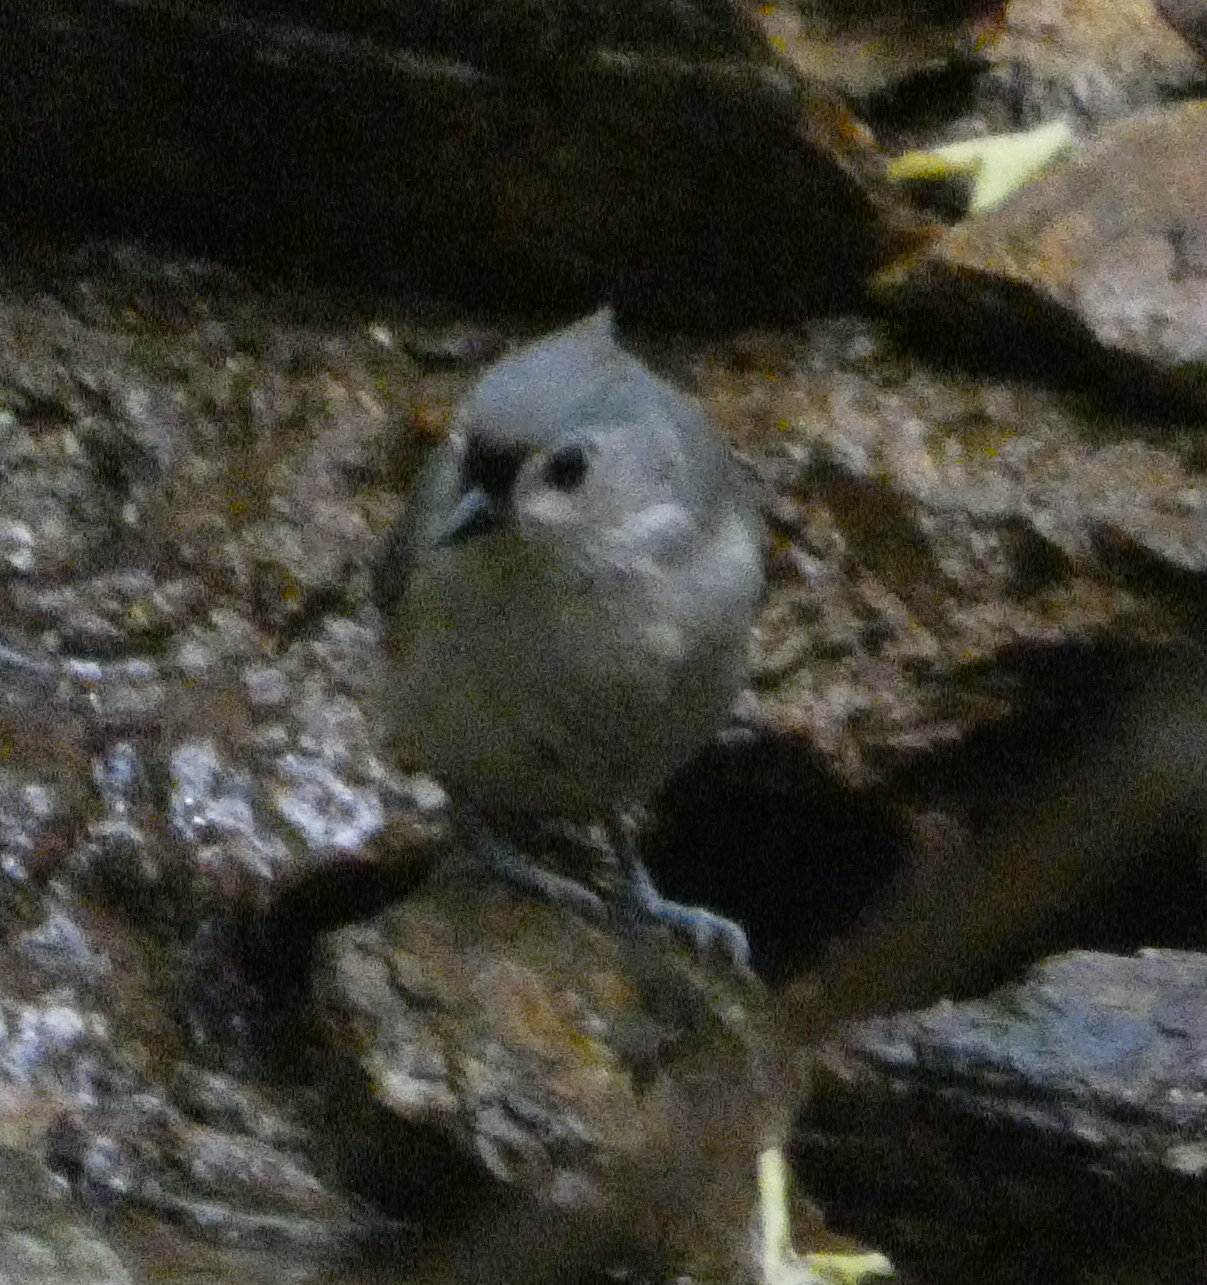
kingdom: Animalia
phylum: Chordata
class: Aves
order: Passeriformes
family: Paridae
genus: Baeolophus
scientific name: Baeolophus bicolor
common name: Tufted titmouse
